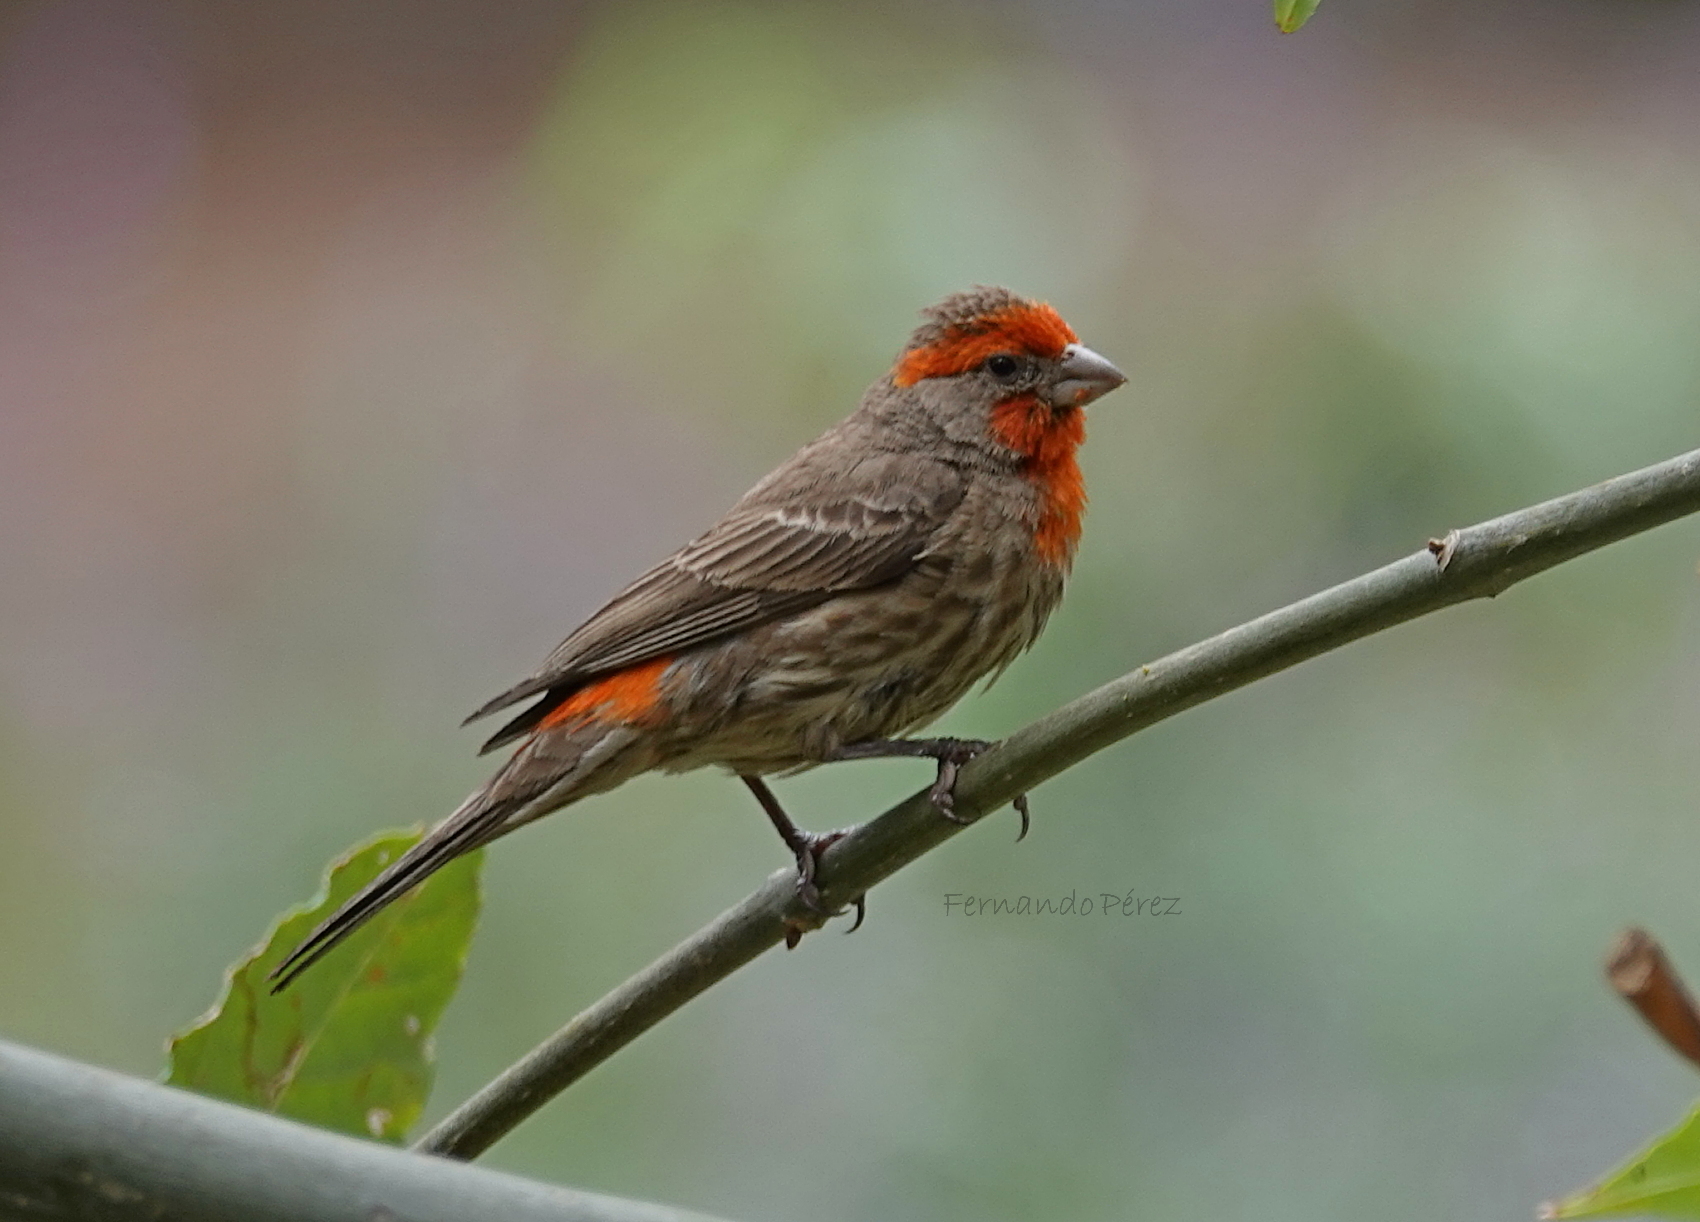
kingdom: Animalia
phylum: Chordata
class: Aves
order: Passeriformes
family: Fringillidae
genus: Haemorhous
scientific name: Haemorhous mexicanus
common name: House finch
